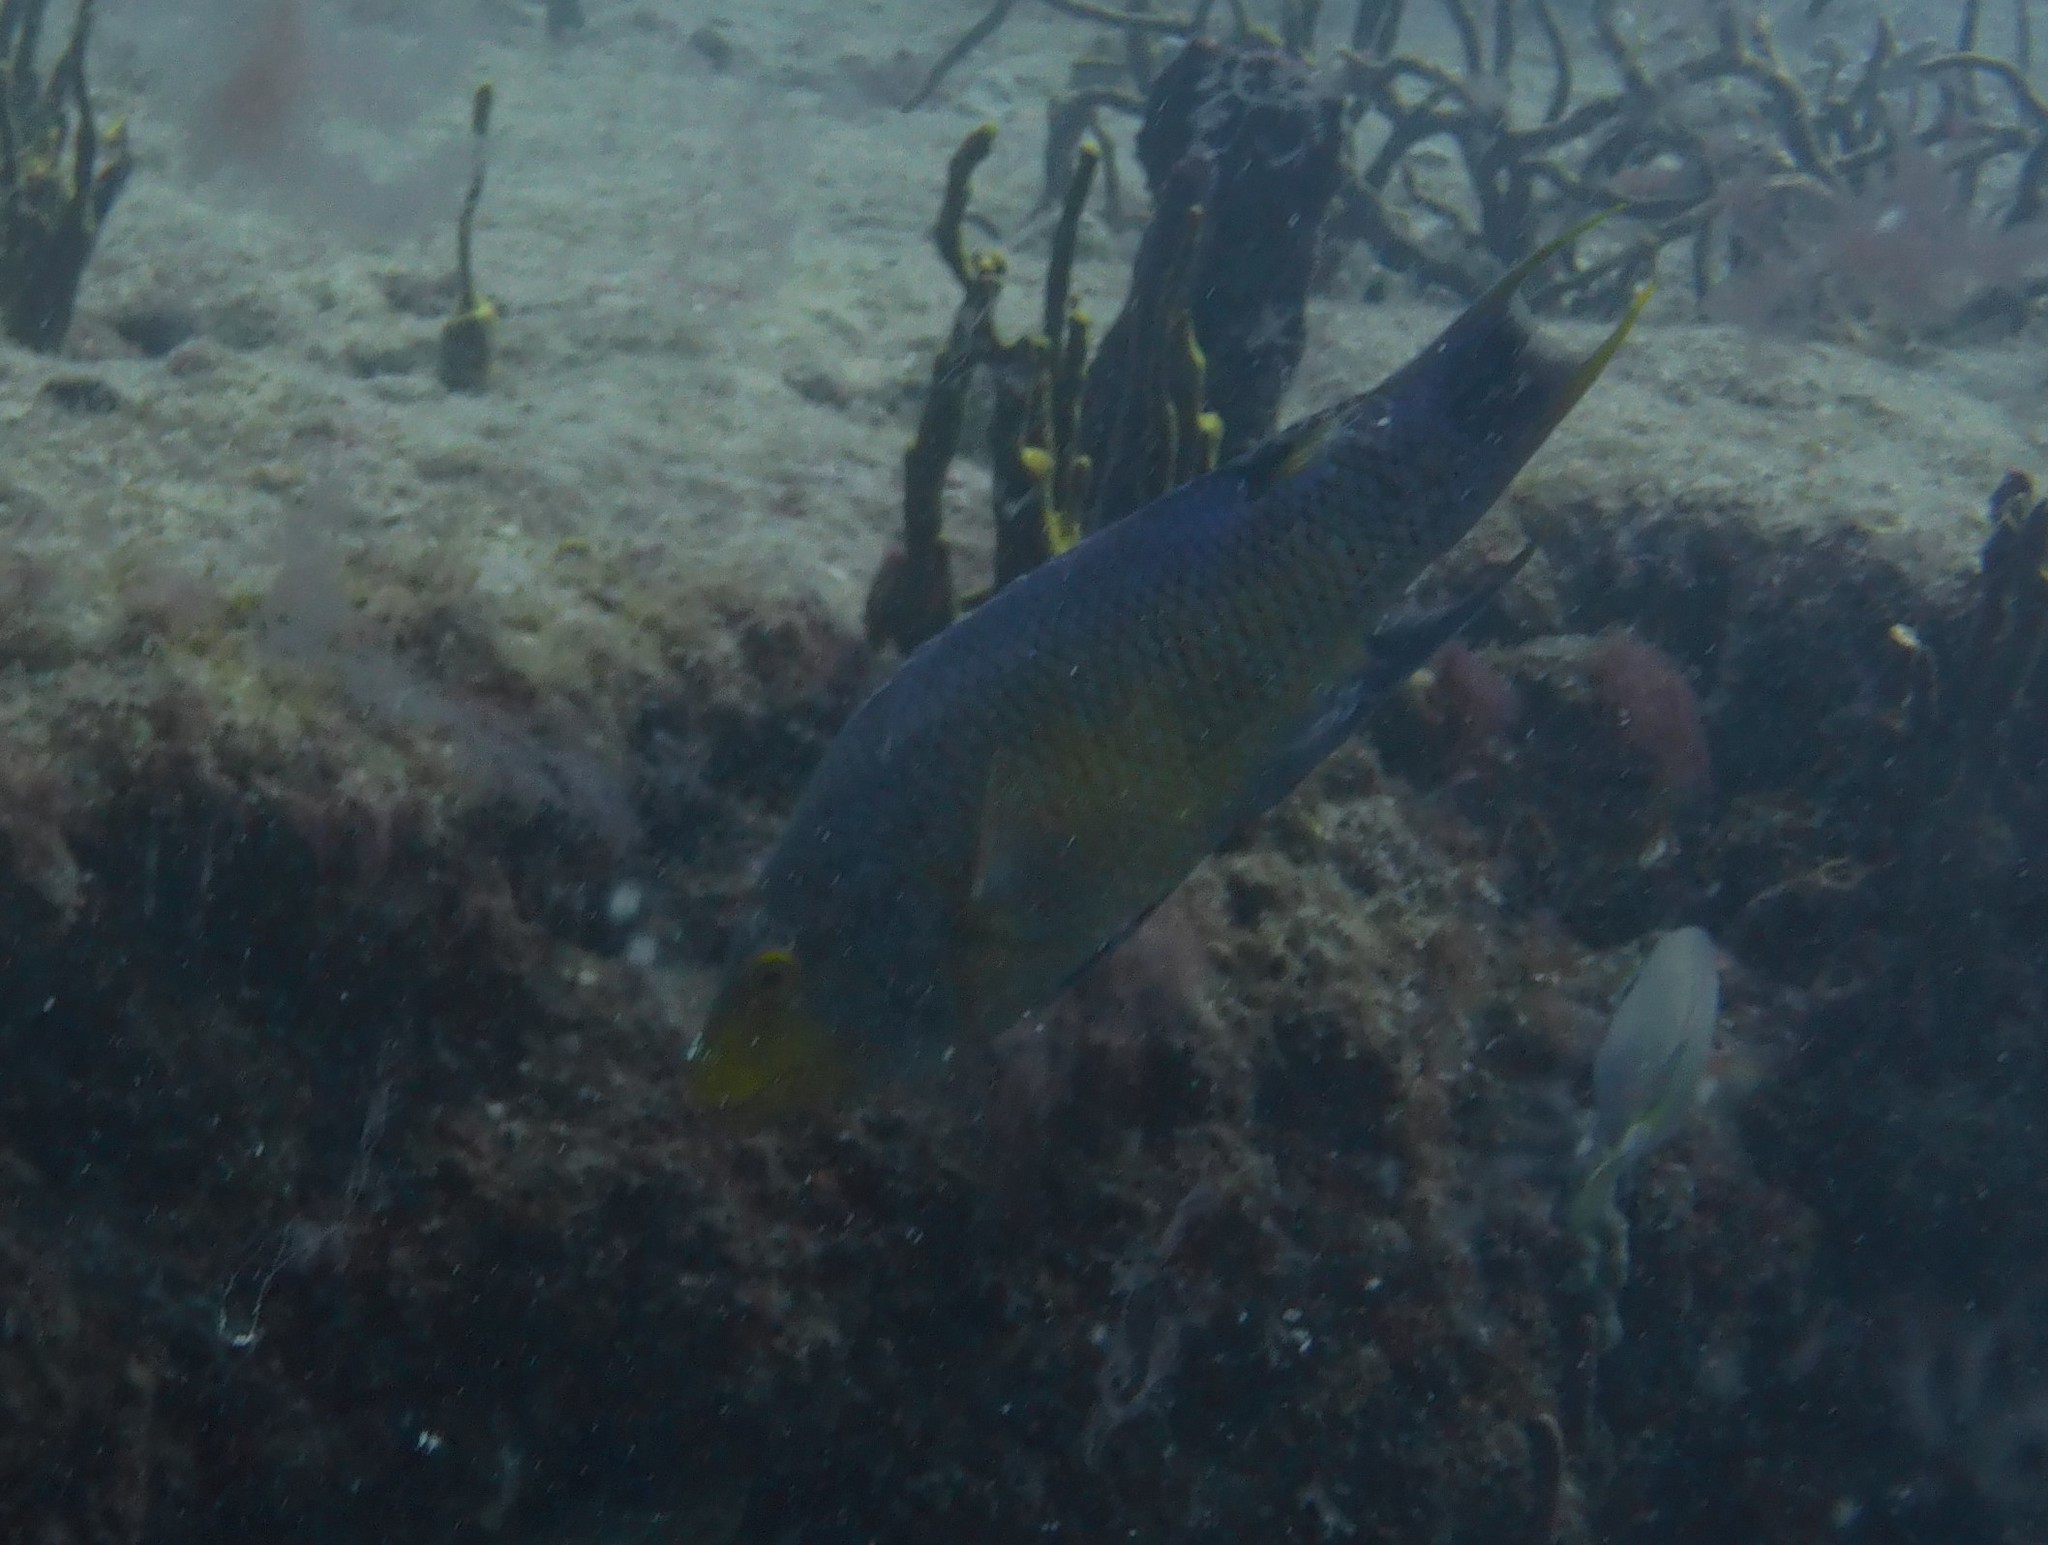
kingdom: Animalia
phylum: Chordata
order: Perciformes
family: Labridae
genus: Bodianus
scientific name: Bodianus rufus
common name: Spanish hogfish
